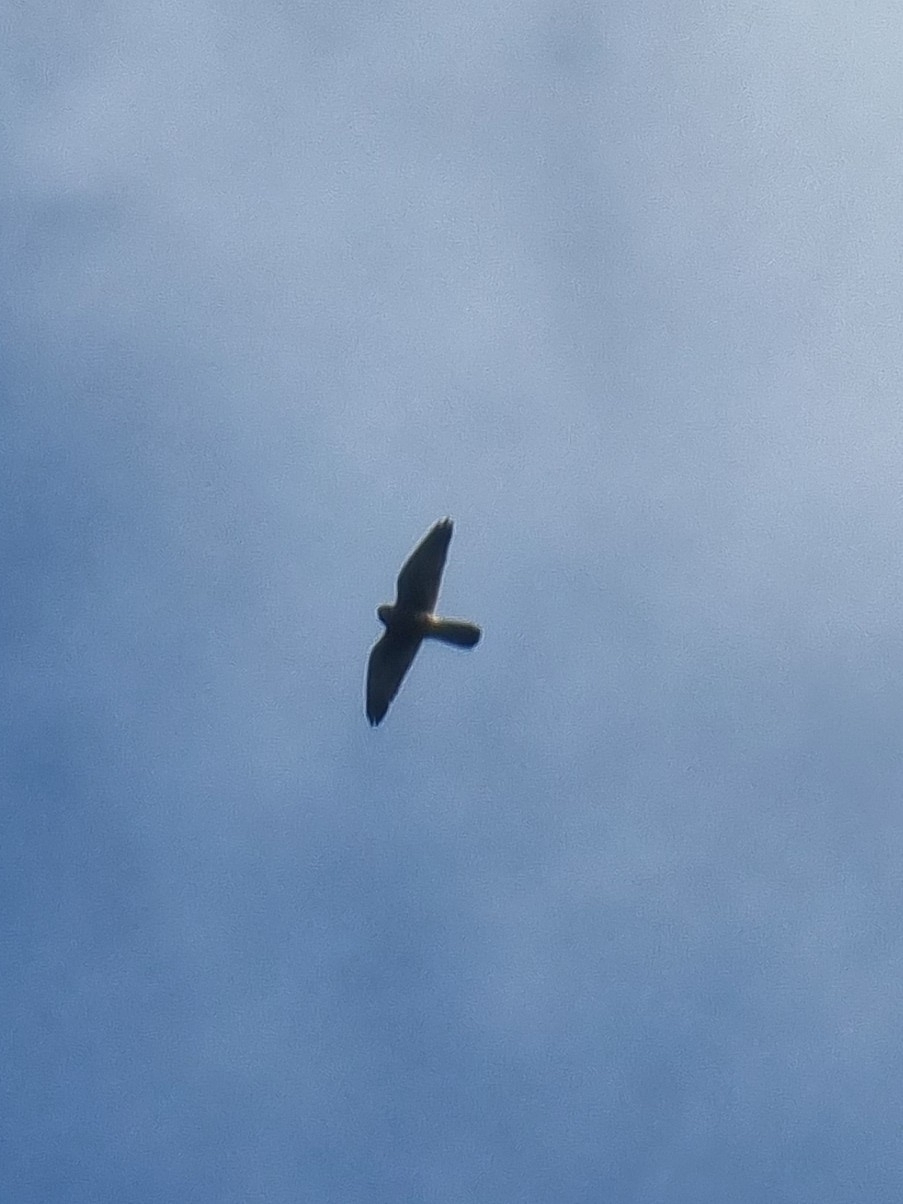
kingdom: Animalia
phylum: Chordata
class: Aves
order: Falconiformes
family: Falconidae
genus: Falco
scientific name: Falco tinnunculus
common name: Common kestrel
